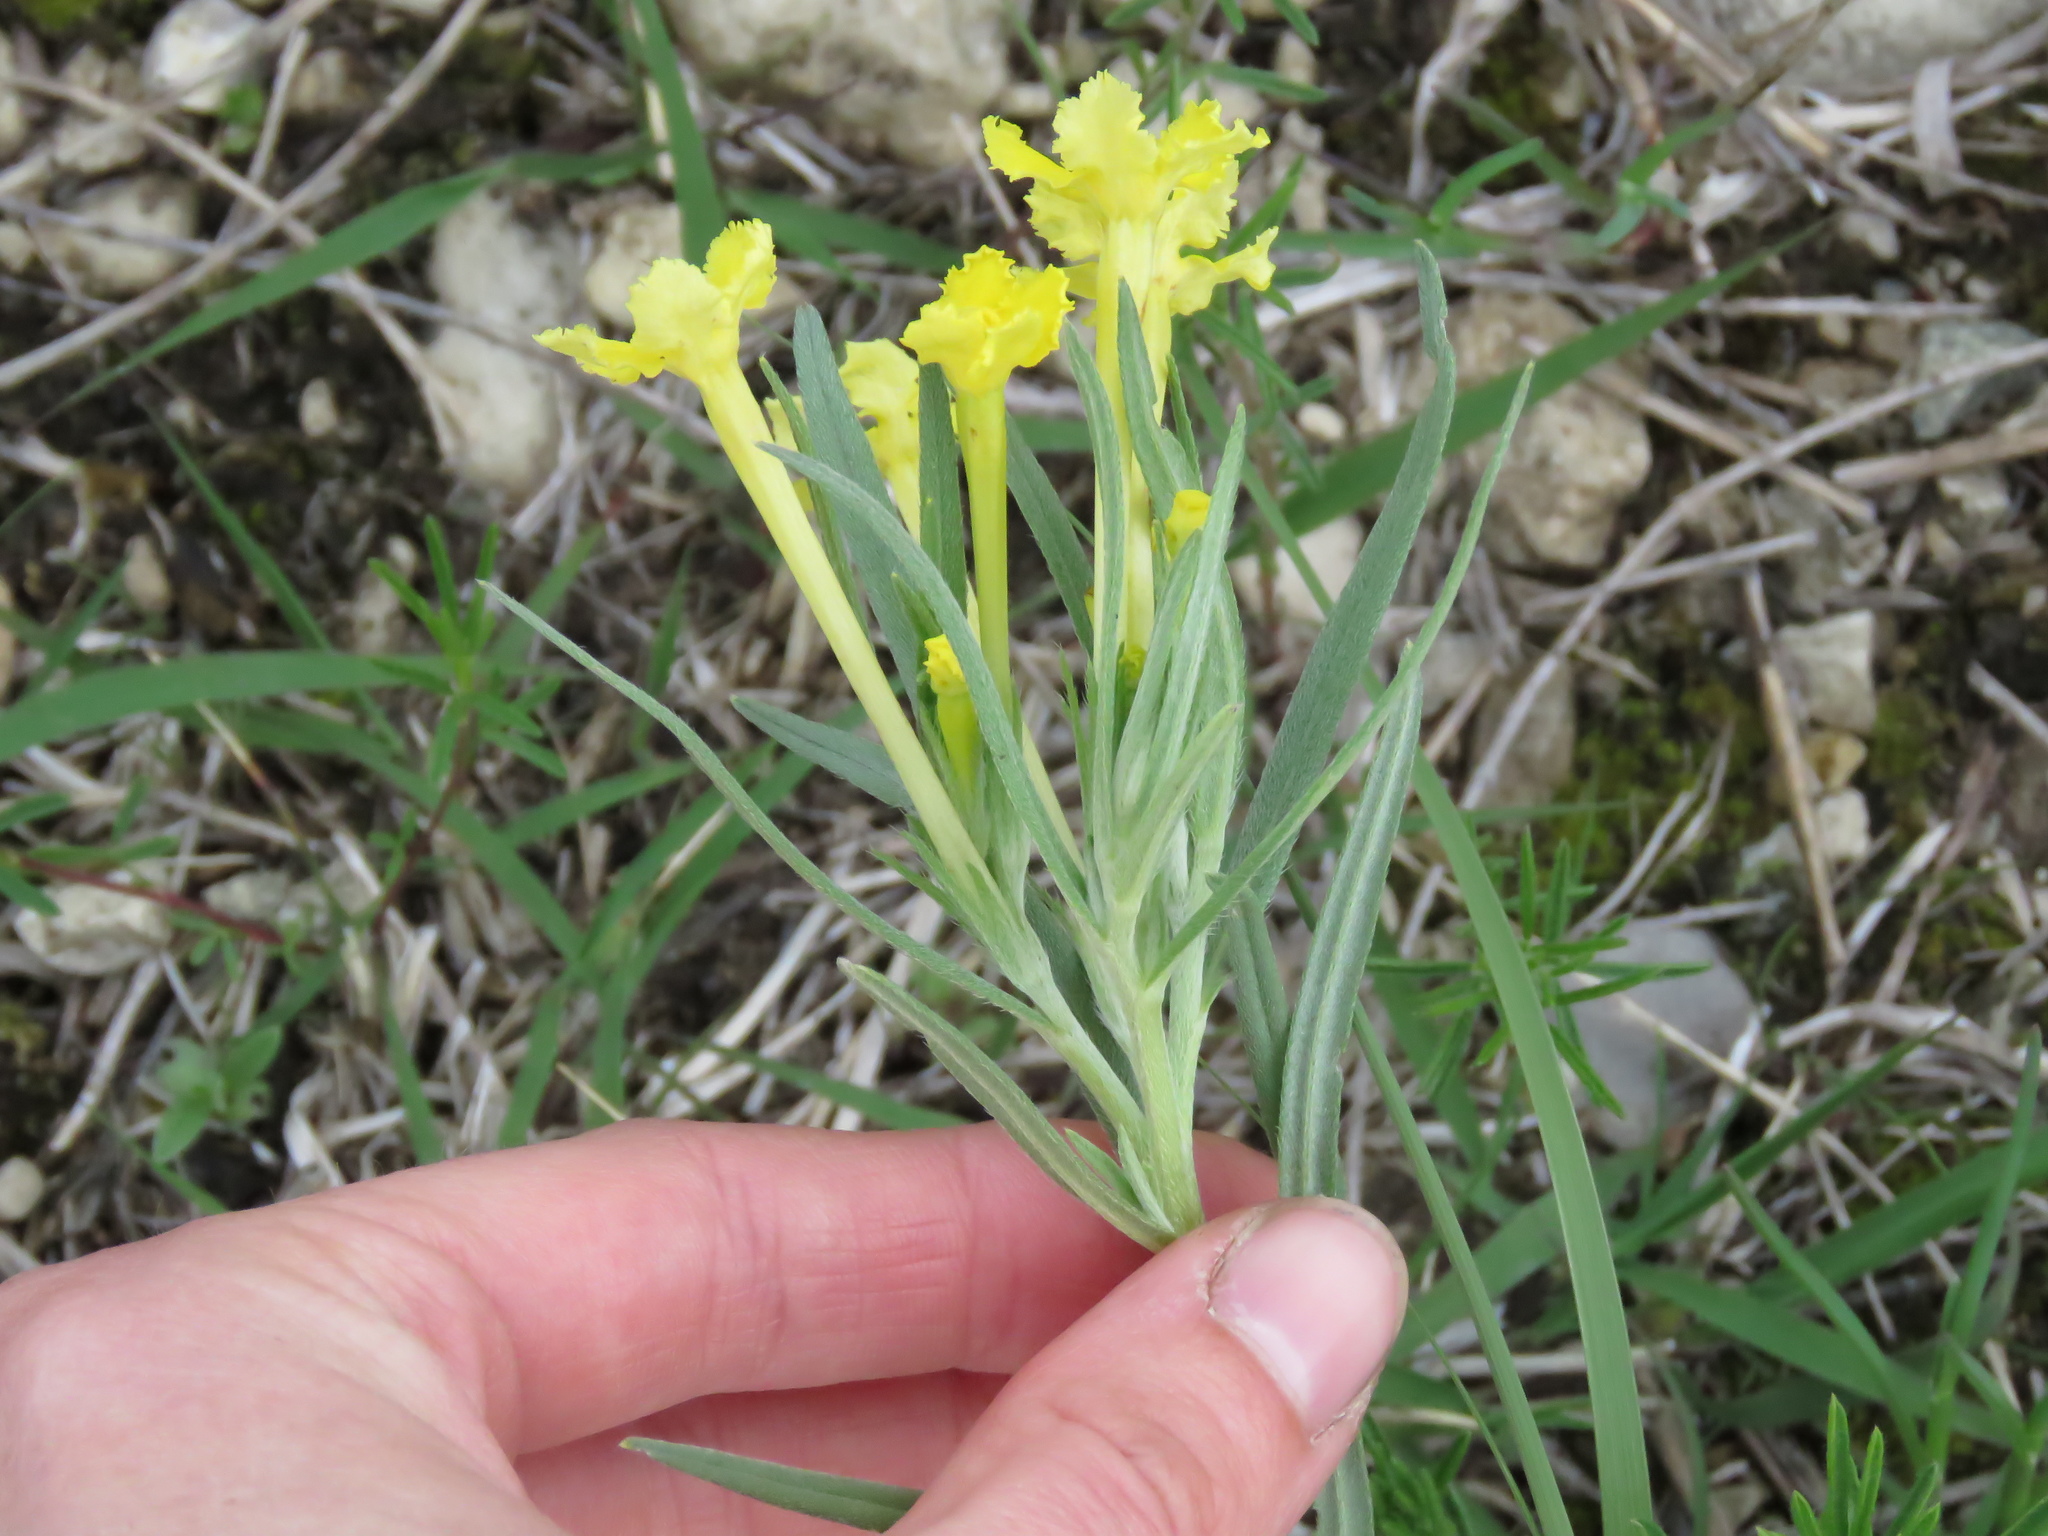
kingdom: Plantae
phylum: Tracheophyta
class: Magnoliopsida
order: Boraginales
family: Boraginaceae
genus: Lithospermum
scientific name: Lithospermum incisum
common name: Fringed gromwell
